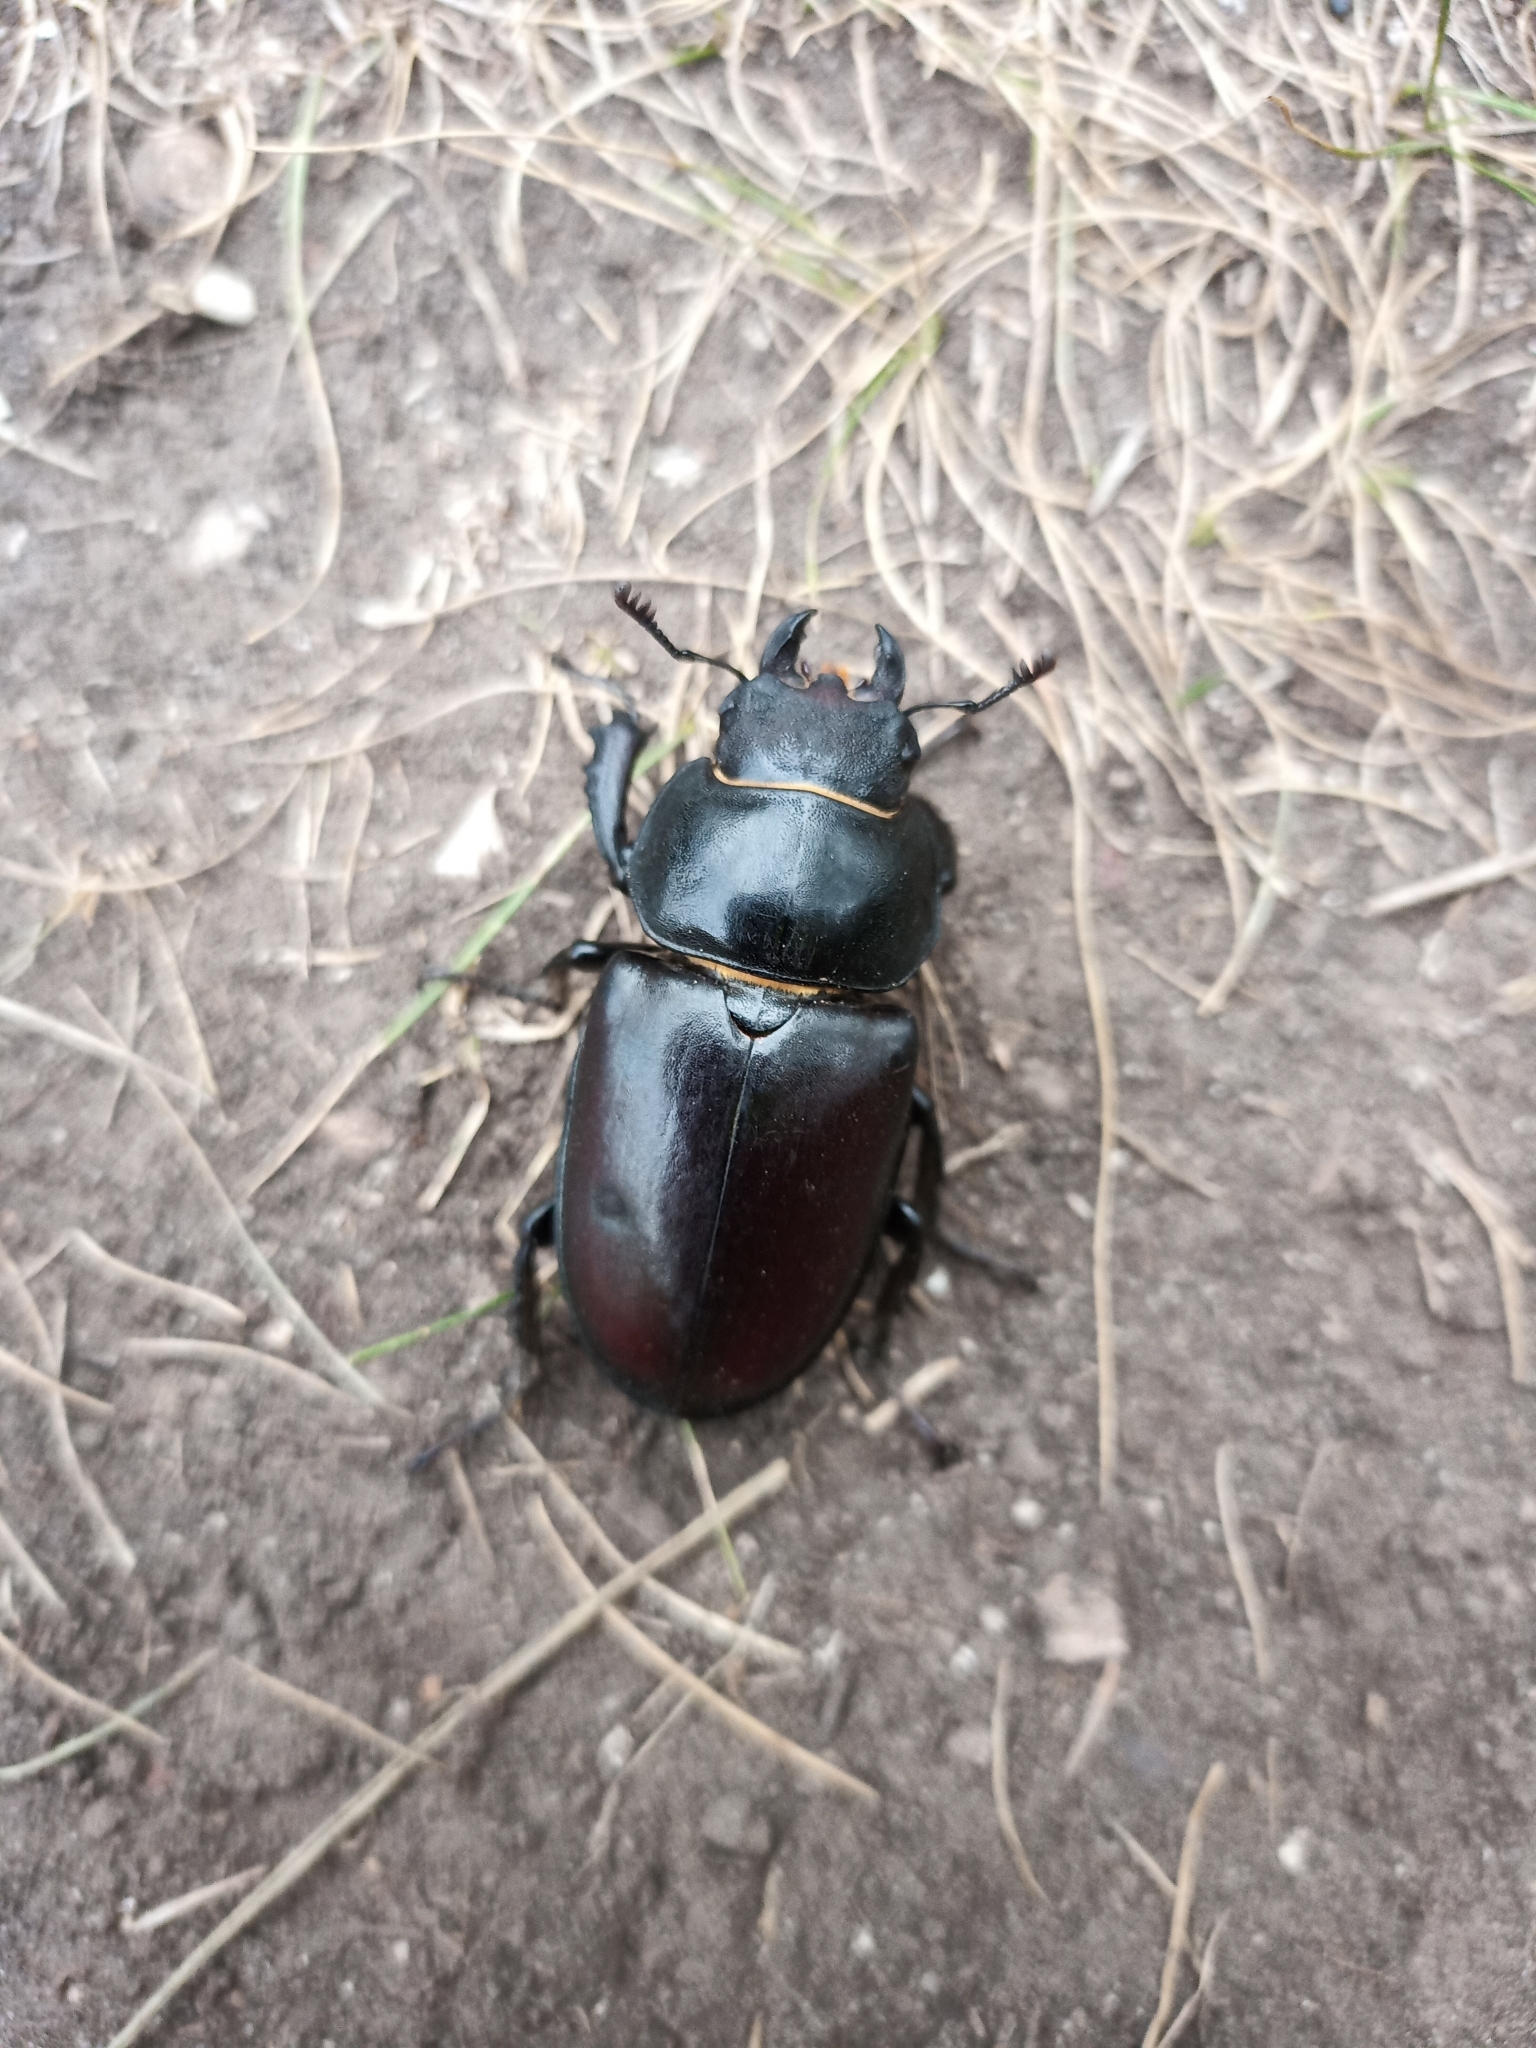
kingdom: Animalia
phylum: Arthropoda
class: Insecta
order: Coleoptera
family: Lucanidae
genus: Lucanus
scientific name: Lucanus cervus
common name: Stag beetle
